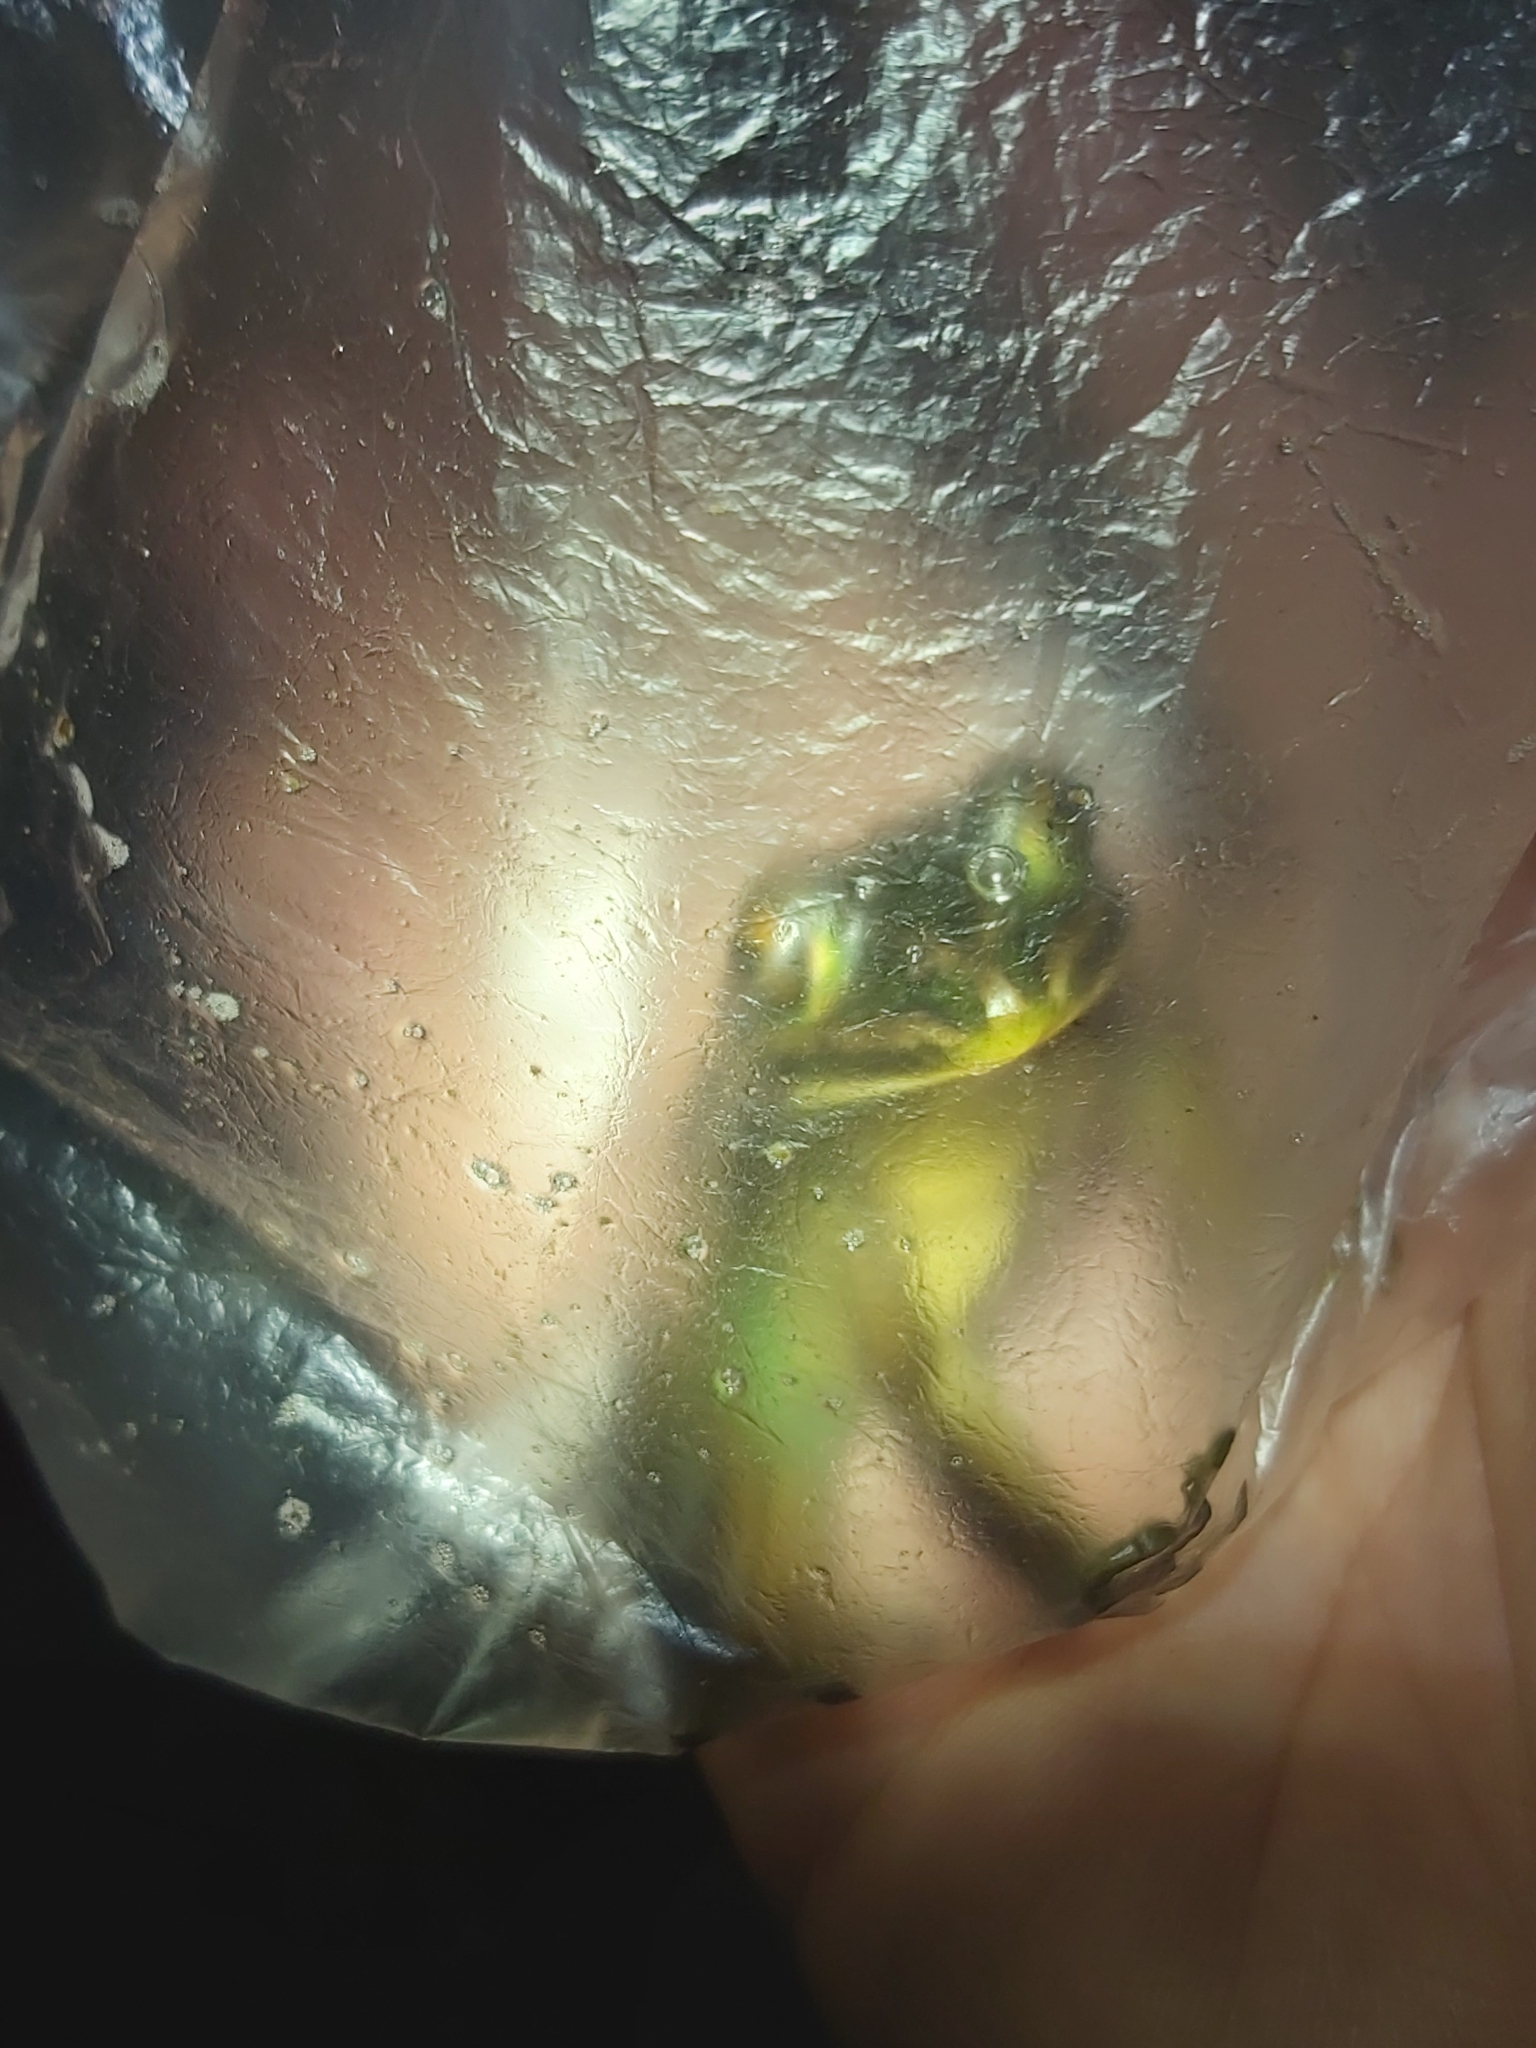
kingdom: Animalia
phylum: Chordata
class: Amphibia
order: Anura
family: Pelodryadidae
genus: Ranoidea
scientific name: Ranoidea aurea
